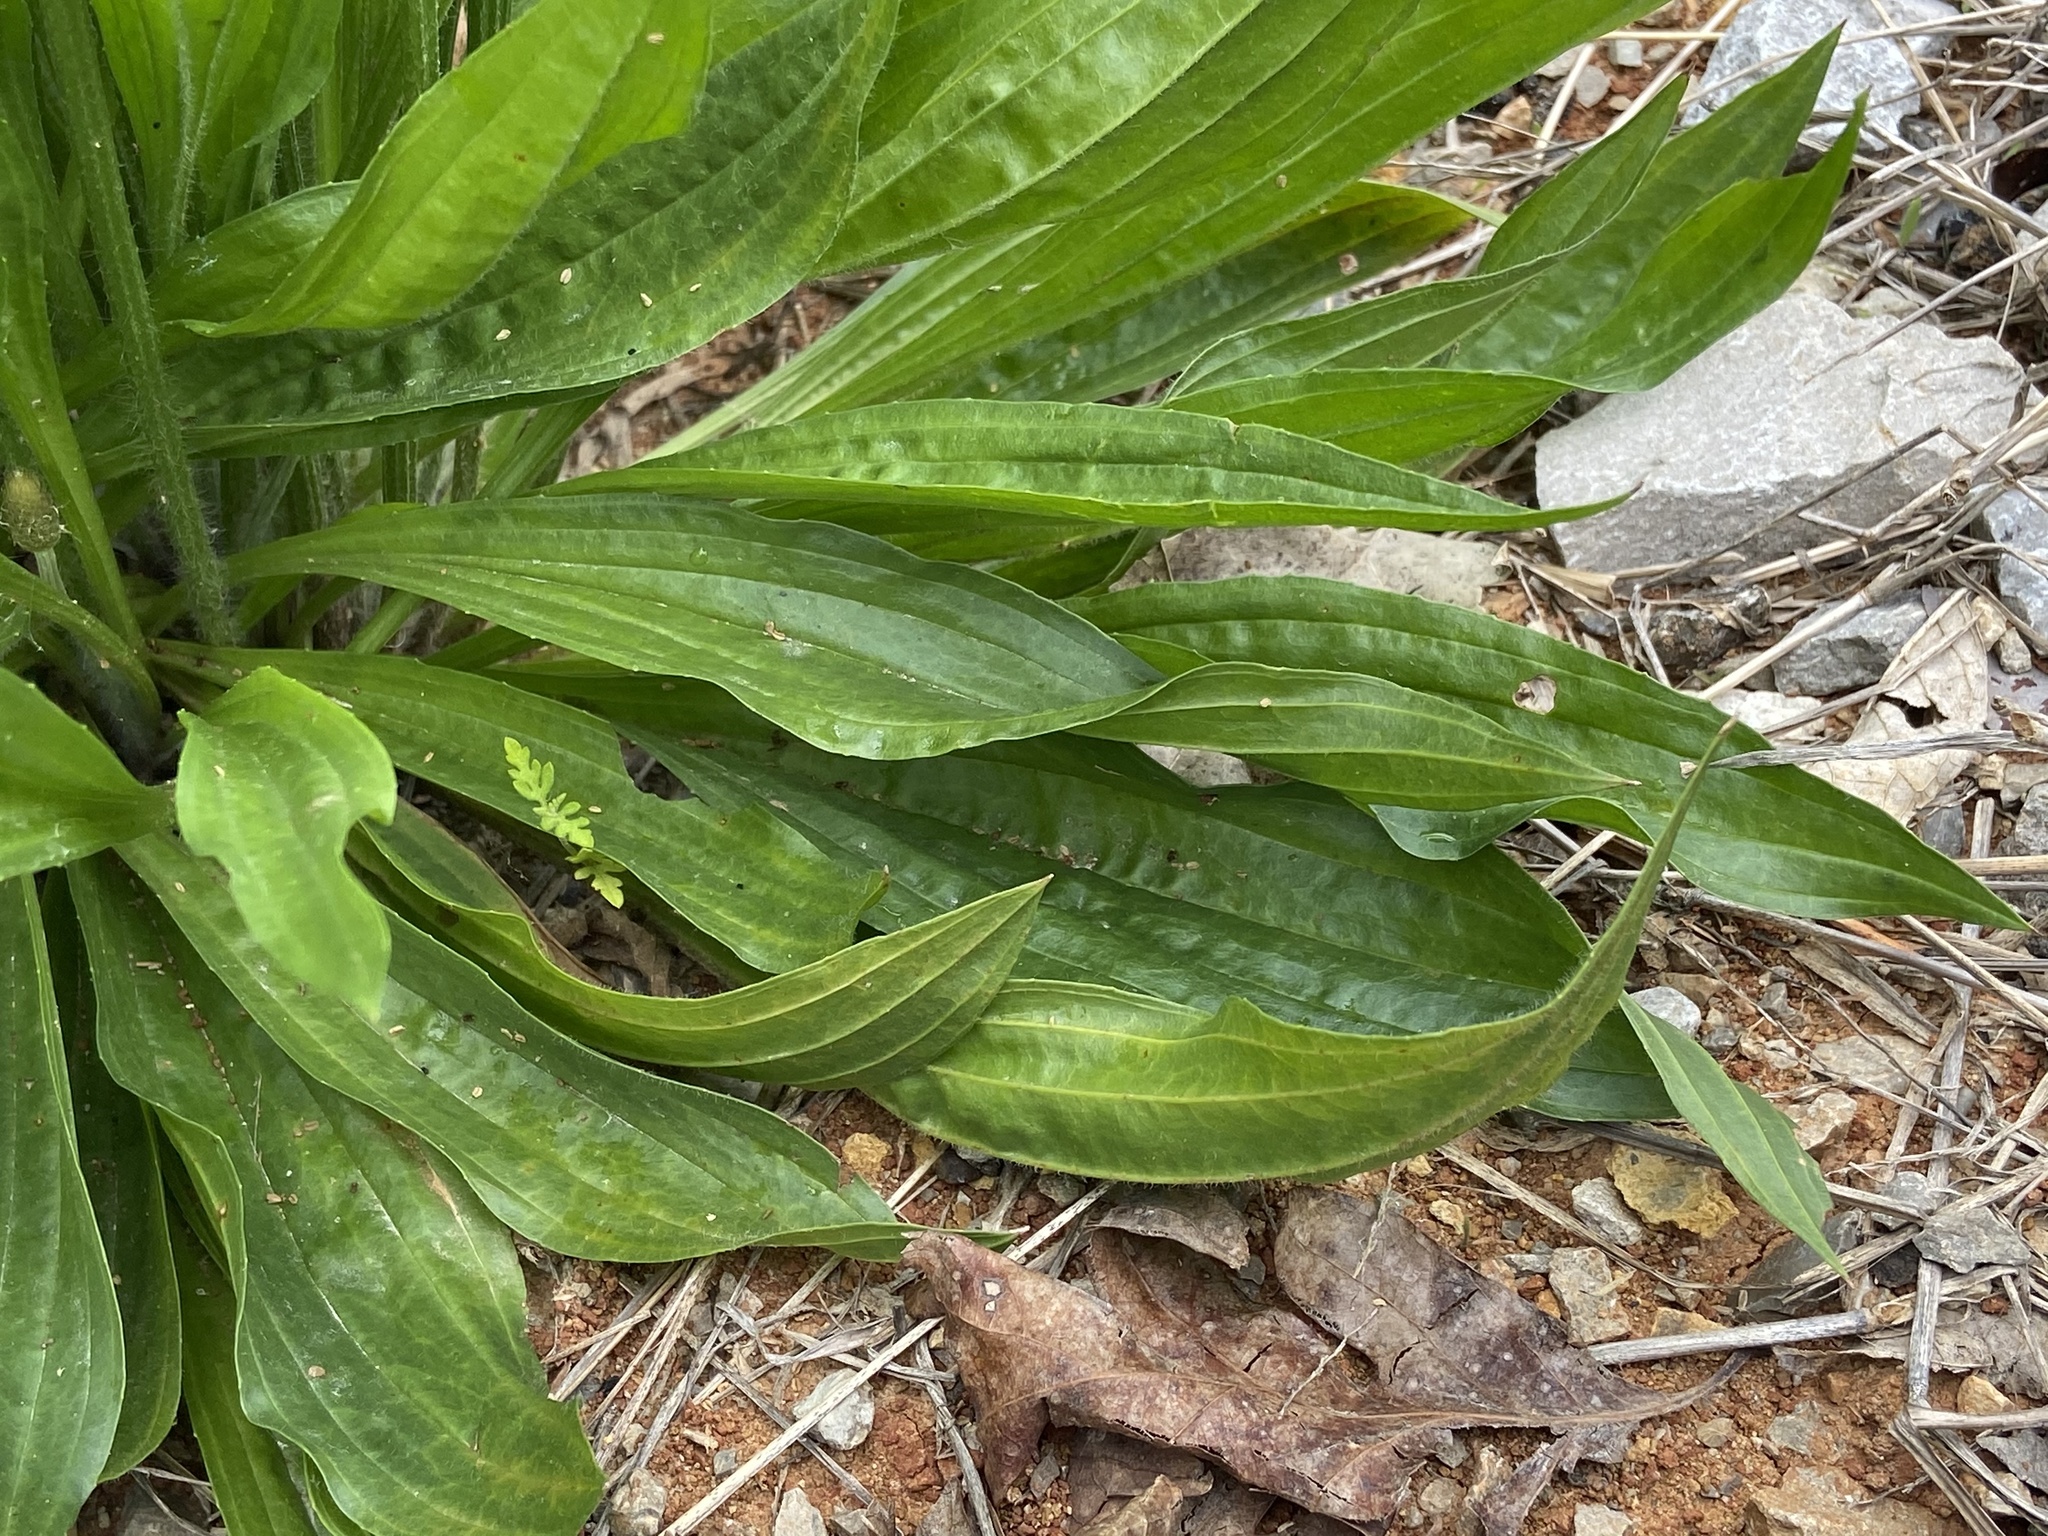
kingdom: Plantae
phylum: Tracheophyta
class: Magnoliopsida
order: Lamiales
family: Plantaginaceae
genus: Plantago
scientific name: Plantago lanceolata
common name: Ribwort plantain
